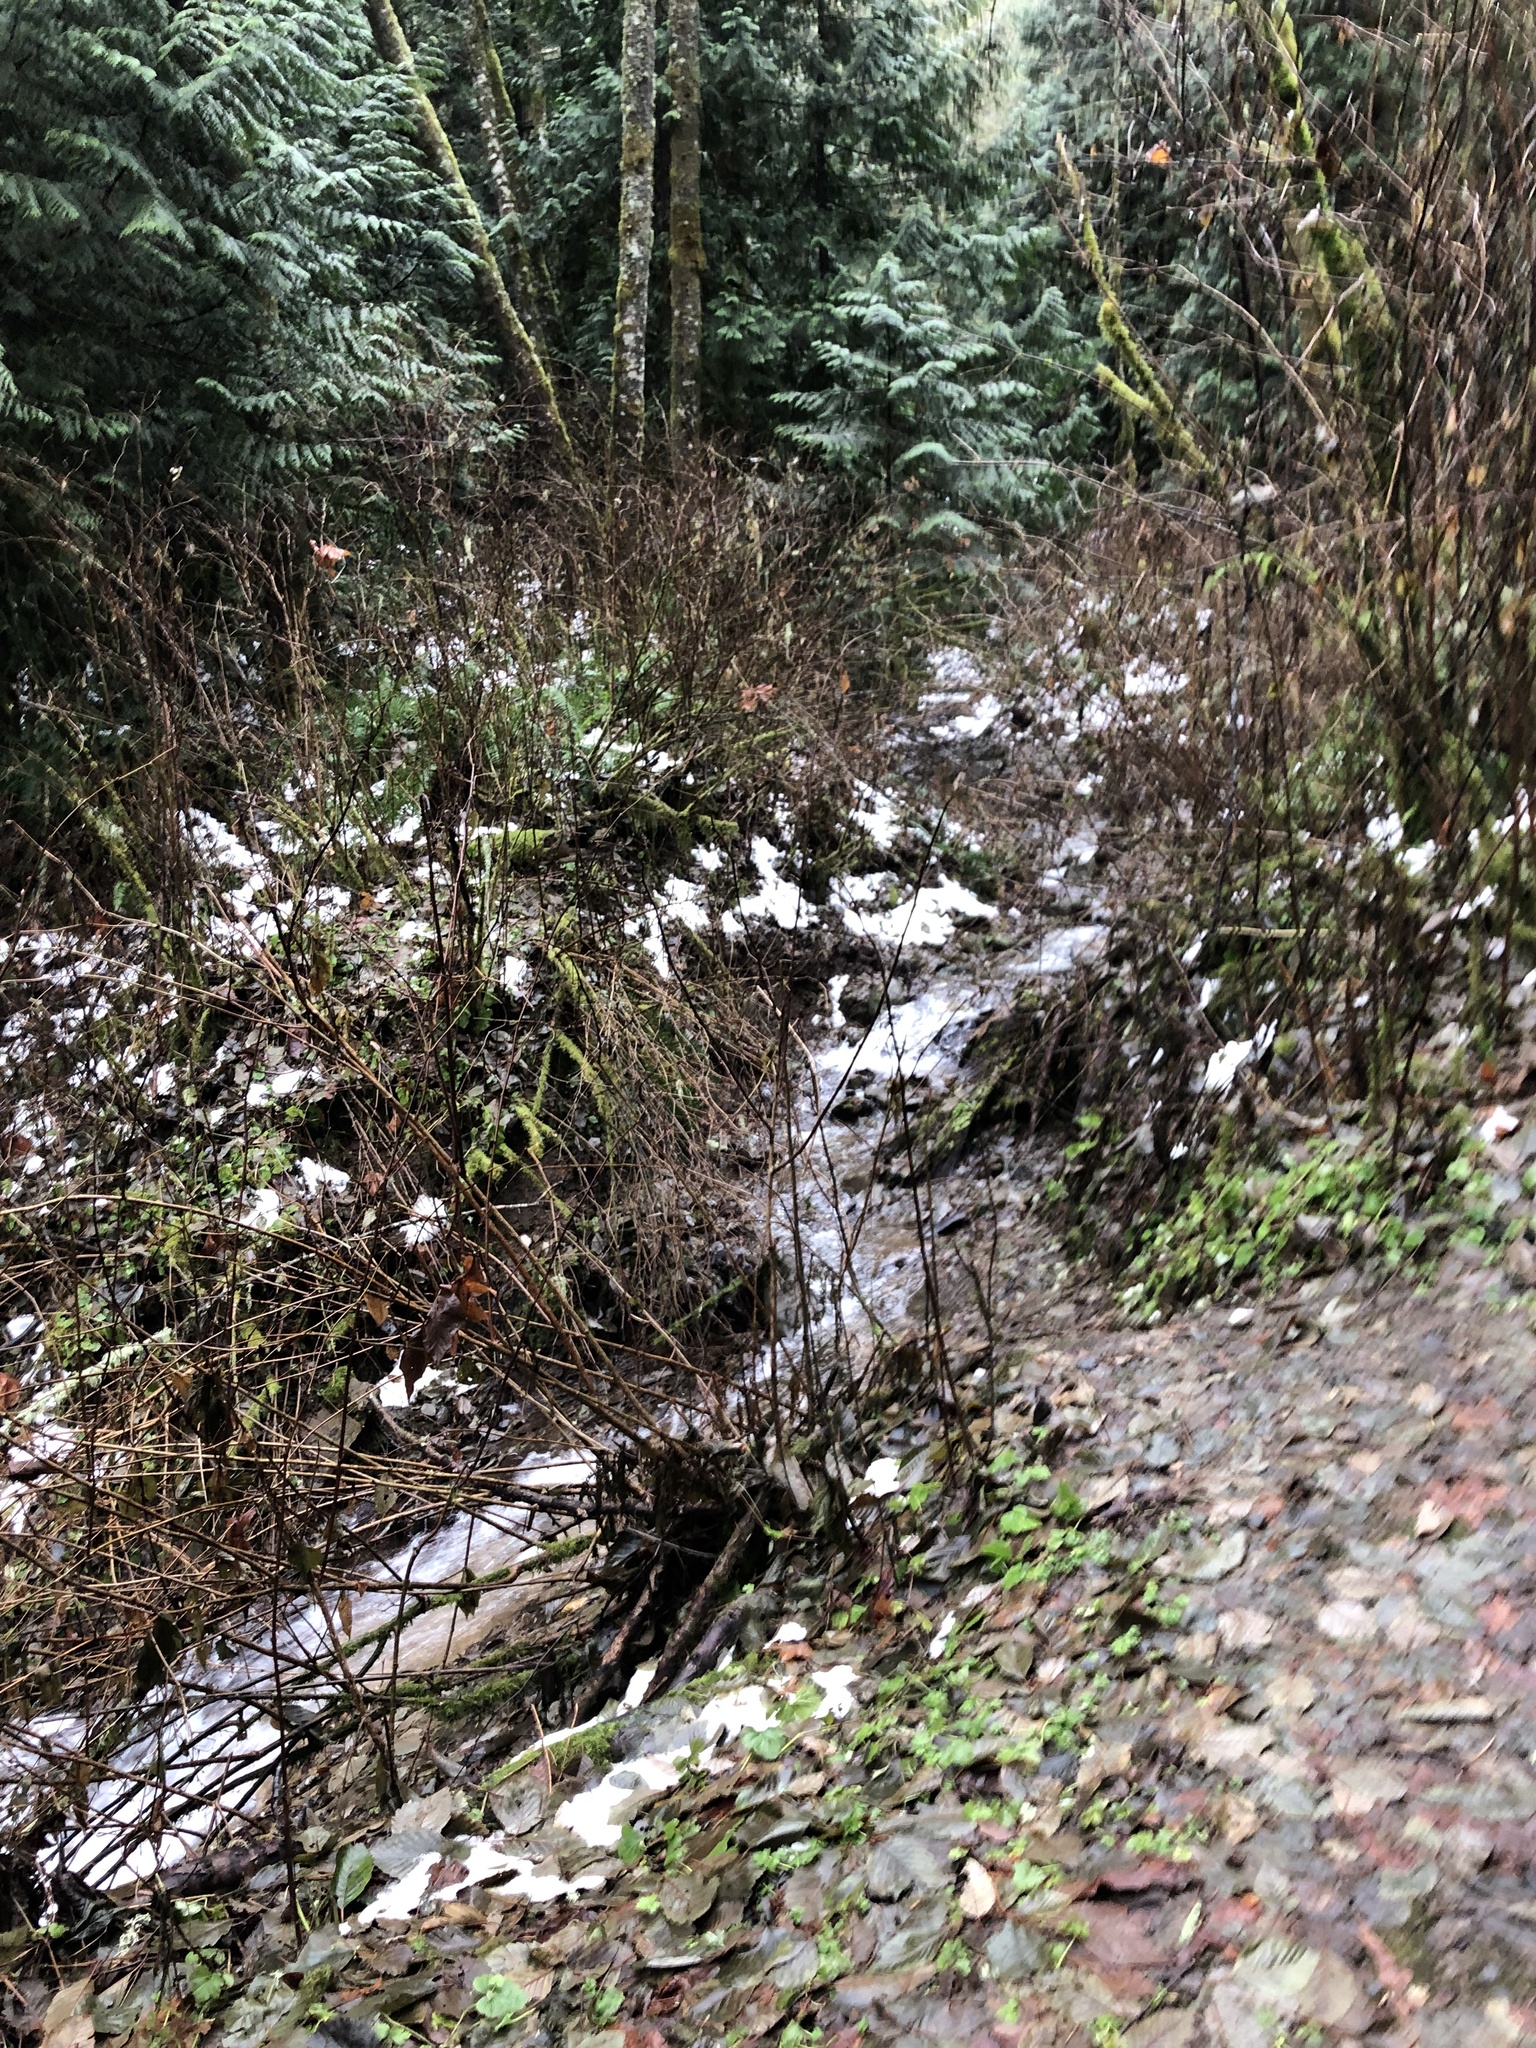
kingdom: Plantae
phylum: Tracheophyta
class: Pinopsida
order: Pinales
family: Cupressaceae
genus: Thuja
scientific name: Thuja plicata
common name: Western red-cedar
